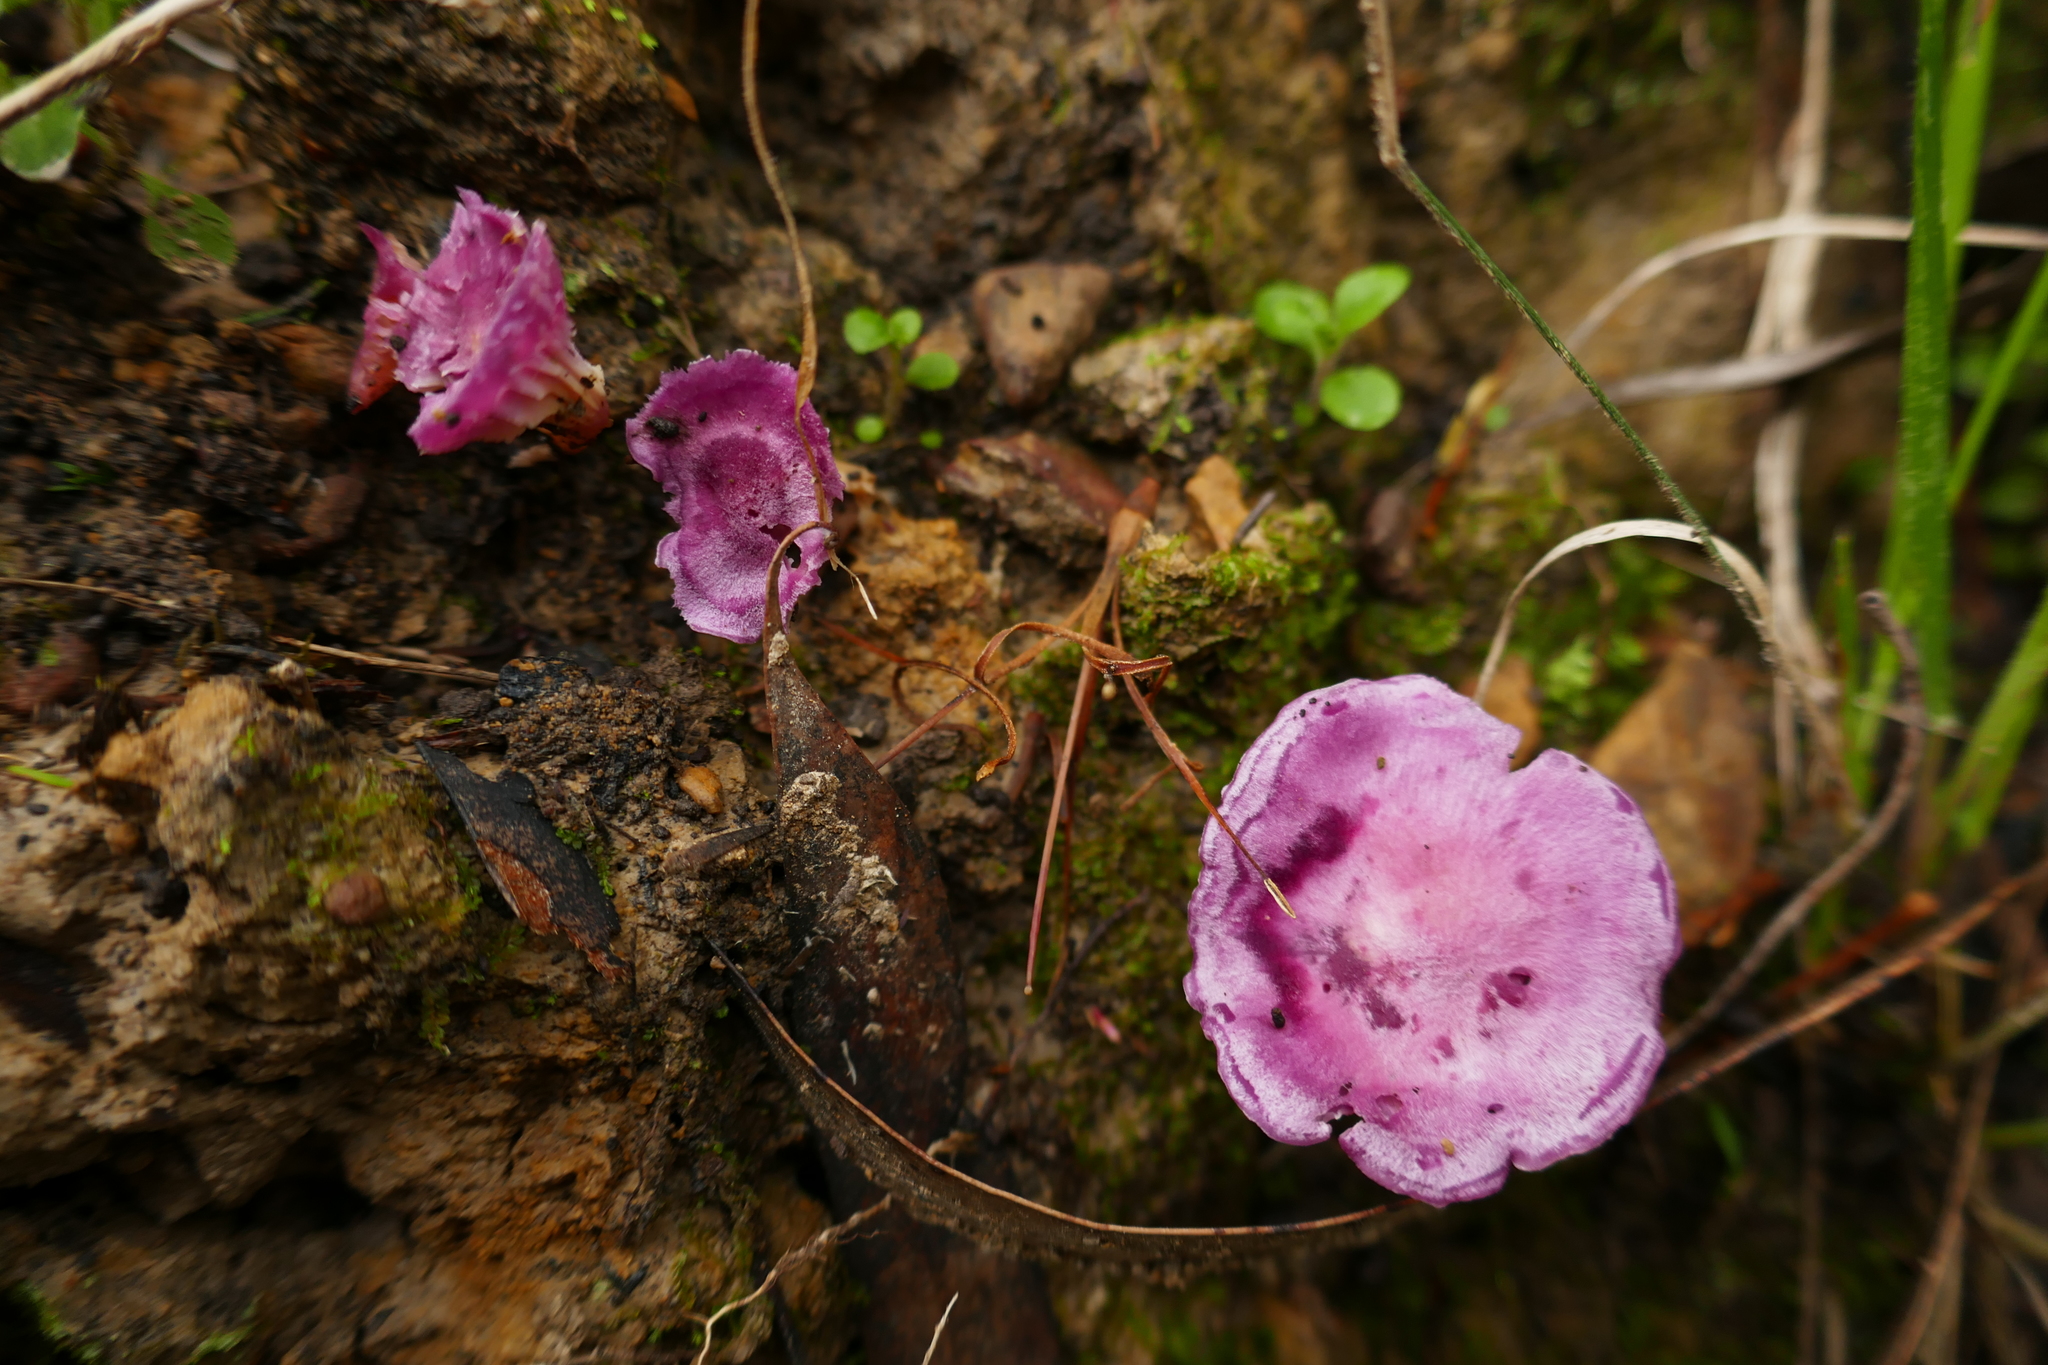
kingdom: Fungi
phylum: Basidiomycota
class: Agaricomycetes
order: Agaricales
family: Hygrophoraceae
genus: Cuphophyllus
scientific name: Cuphophyllus
